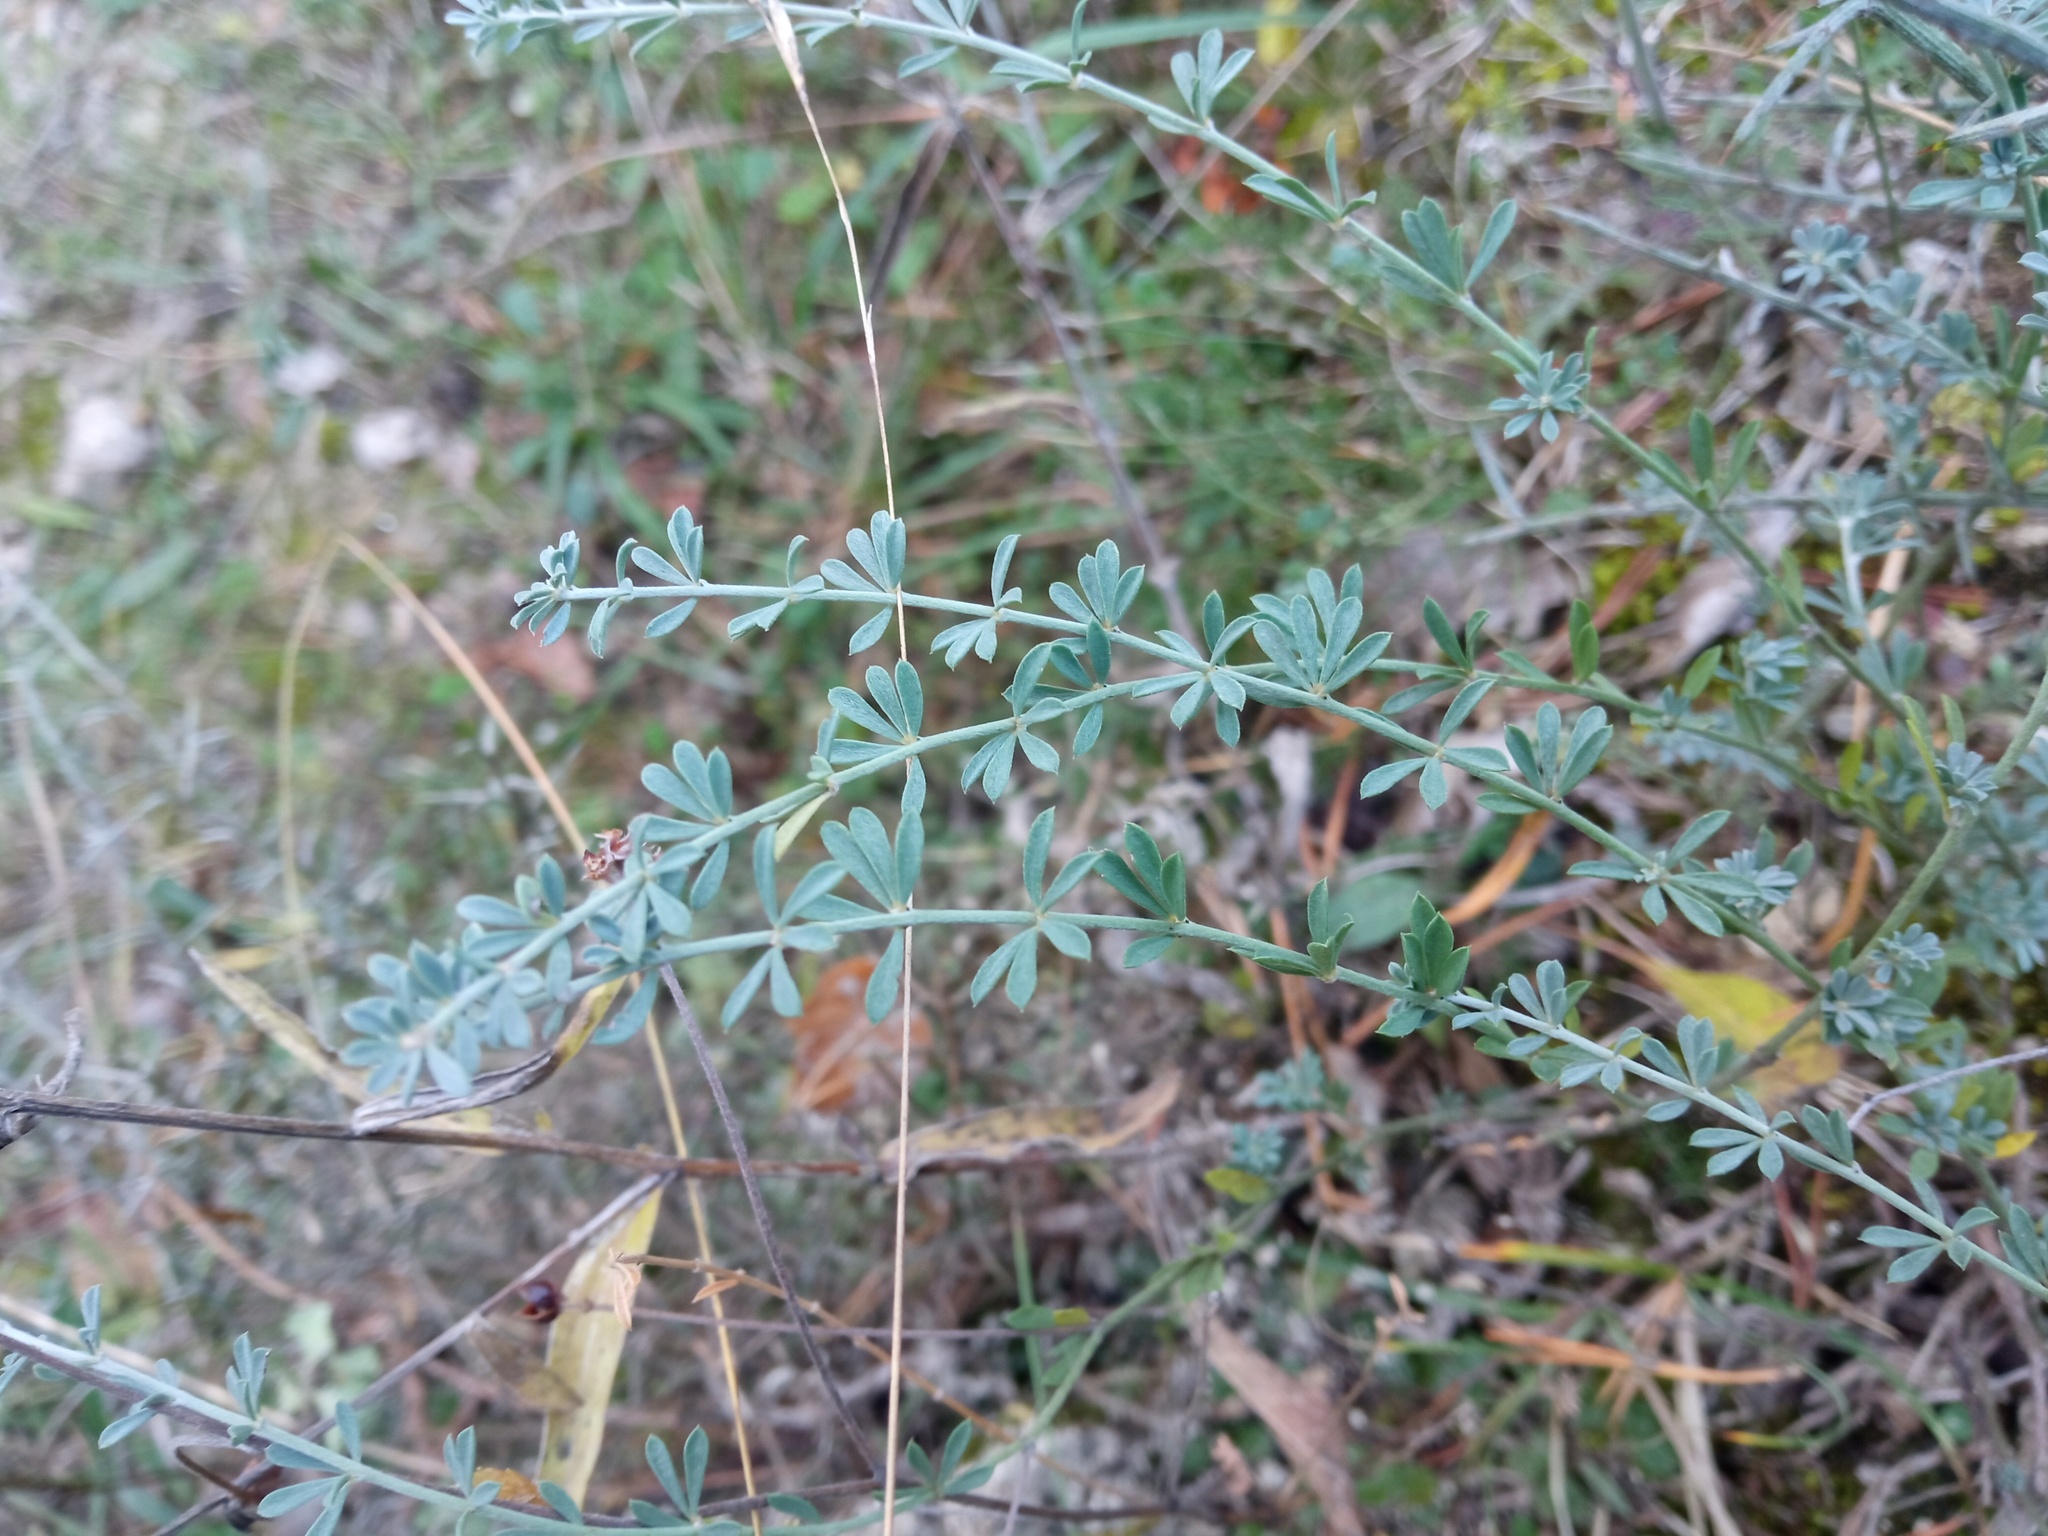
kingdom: Plantae
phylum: Tracheophyta
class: Magnoliopsida
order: Fabales
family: Fabaceae
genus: Lotus
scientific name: Lotus dorycnium
